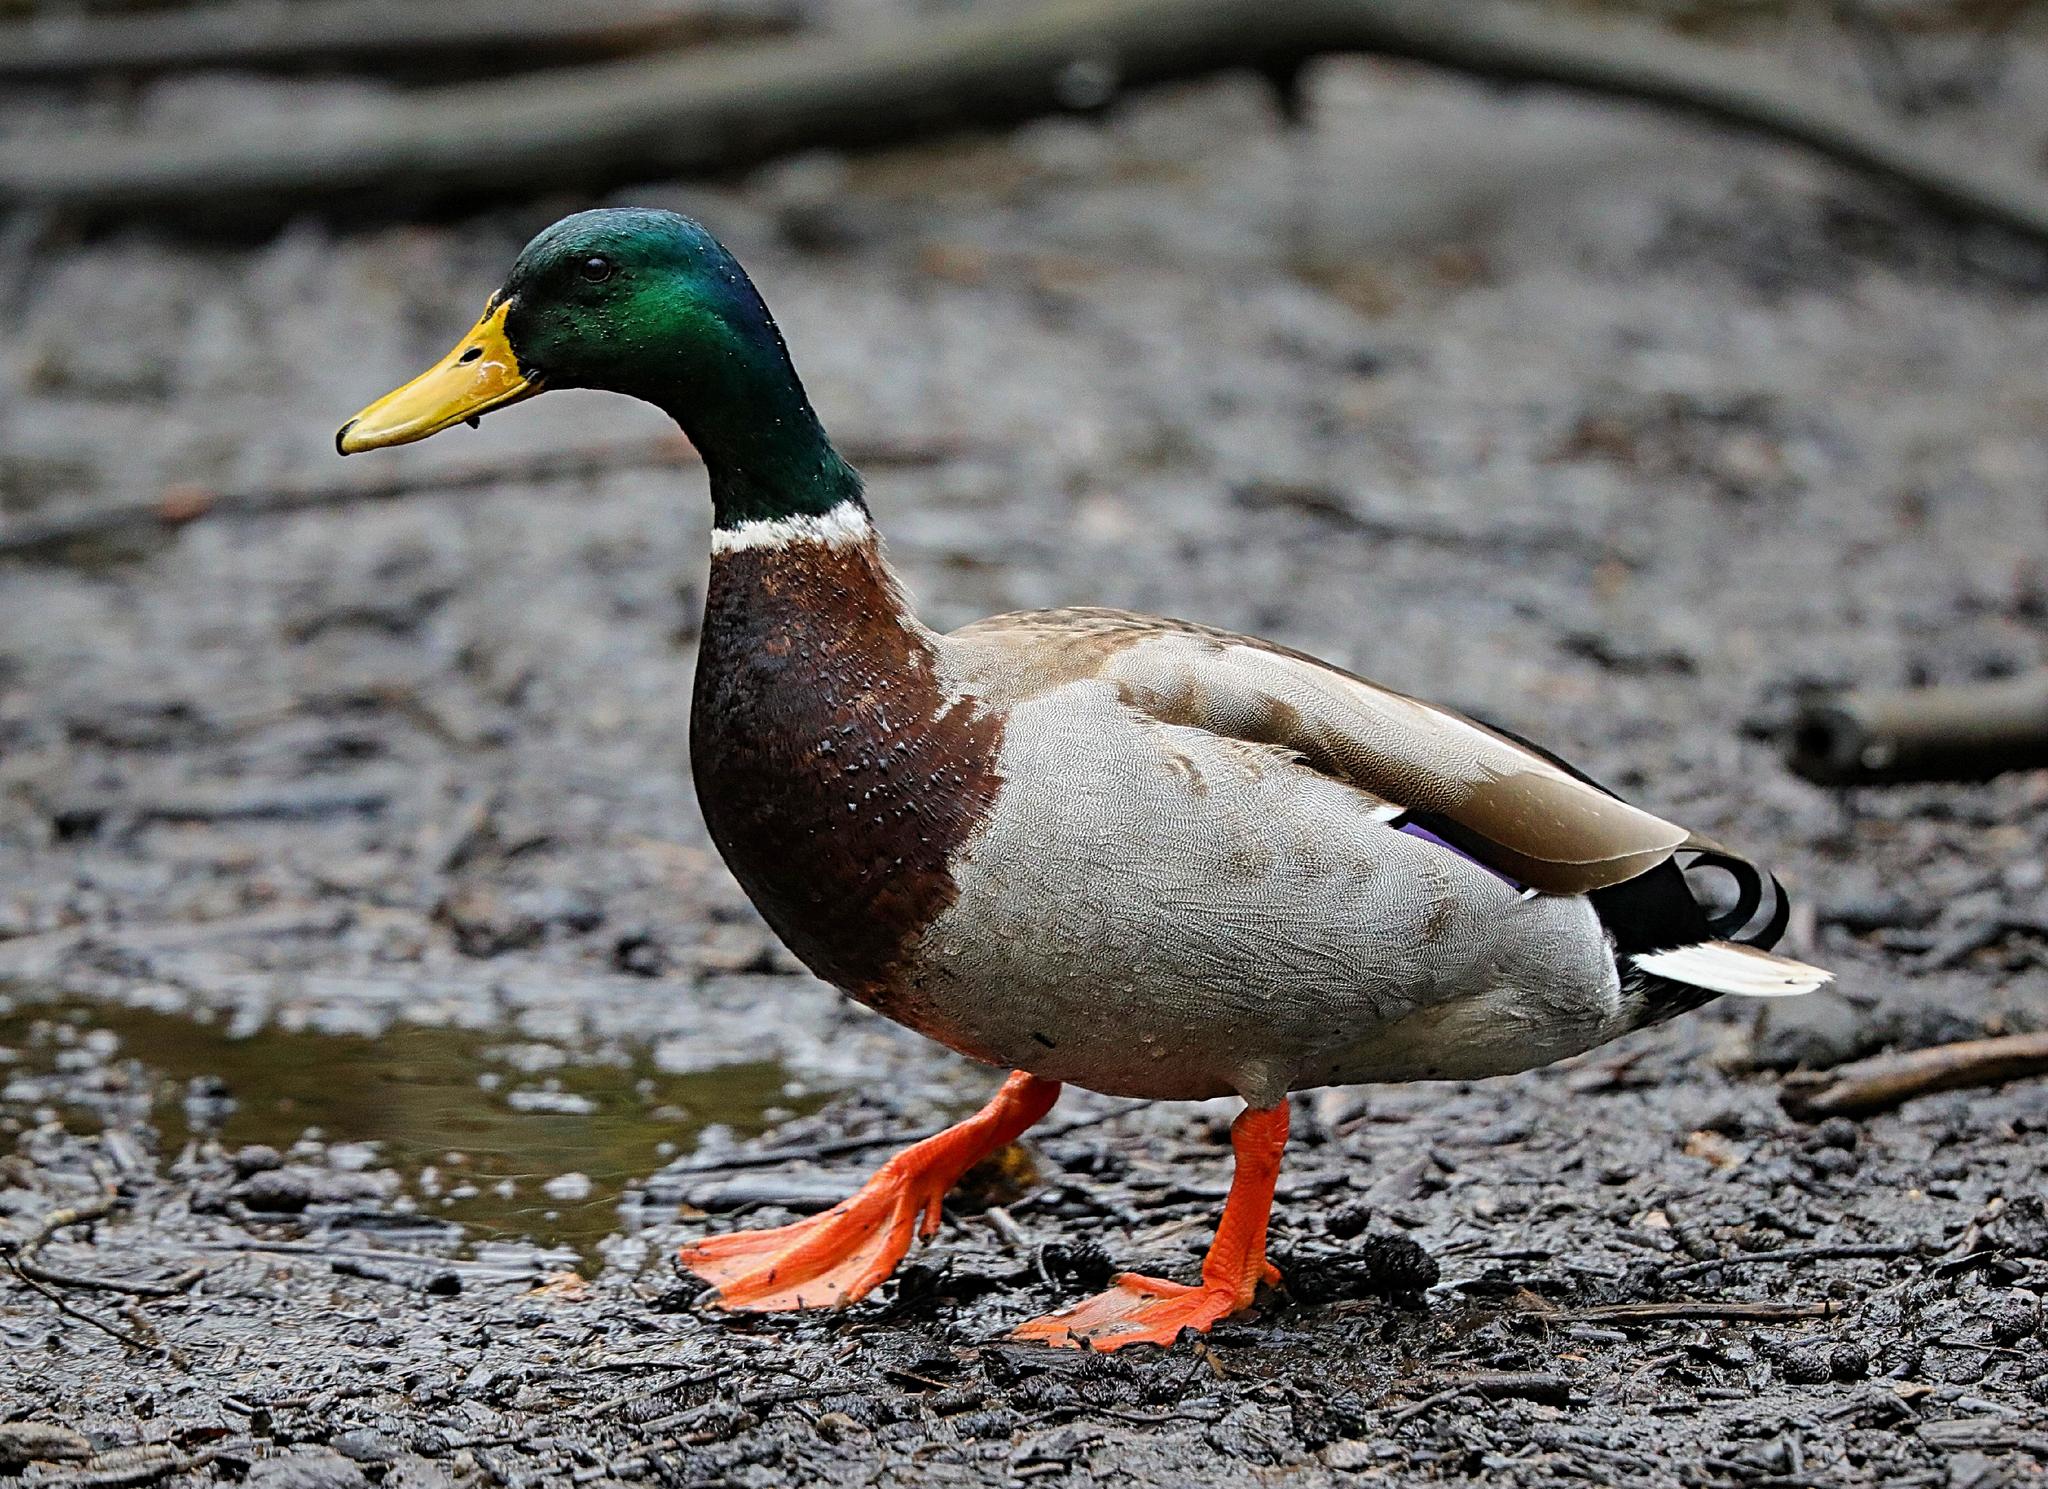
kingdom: Animalia
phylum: Chordata
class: Aves
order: Anseriformes
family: Anatidae
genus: Anas
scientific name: Anas platyrhynchos
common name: Mallard
